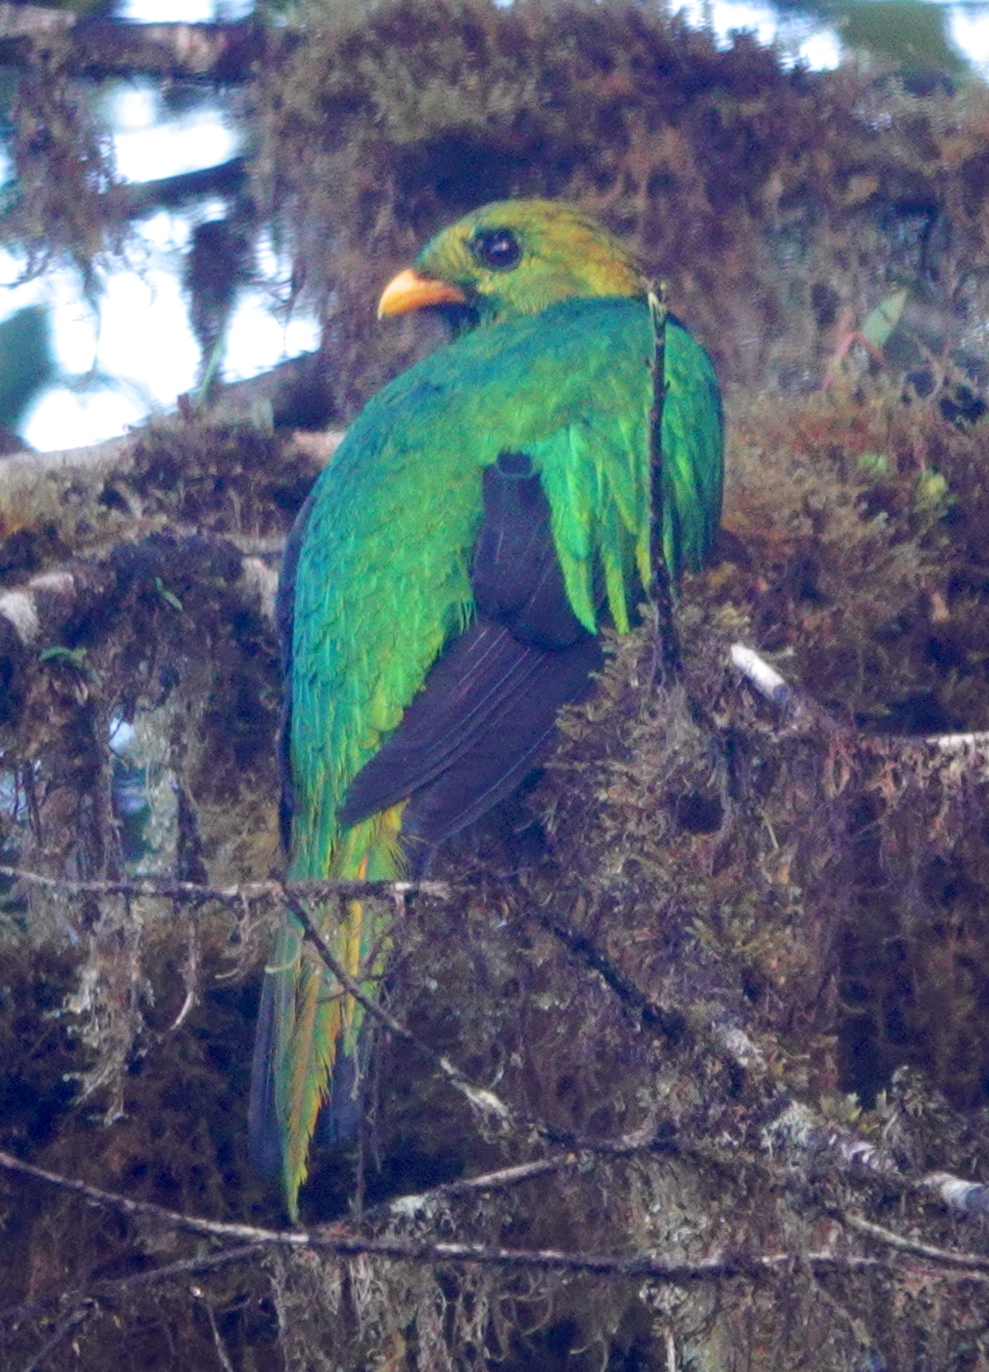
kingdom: Animalia
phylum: Chordata
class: Aves
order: Trogoniformes
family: Trogonidae
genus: Pharomachrus
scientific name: Pharomachrus auriceps
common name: Golden-headed quetzal
